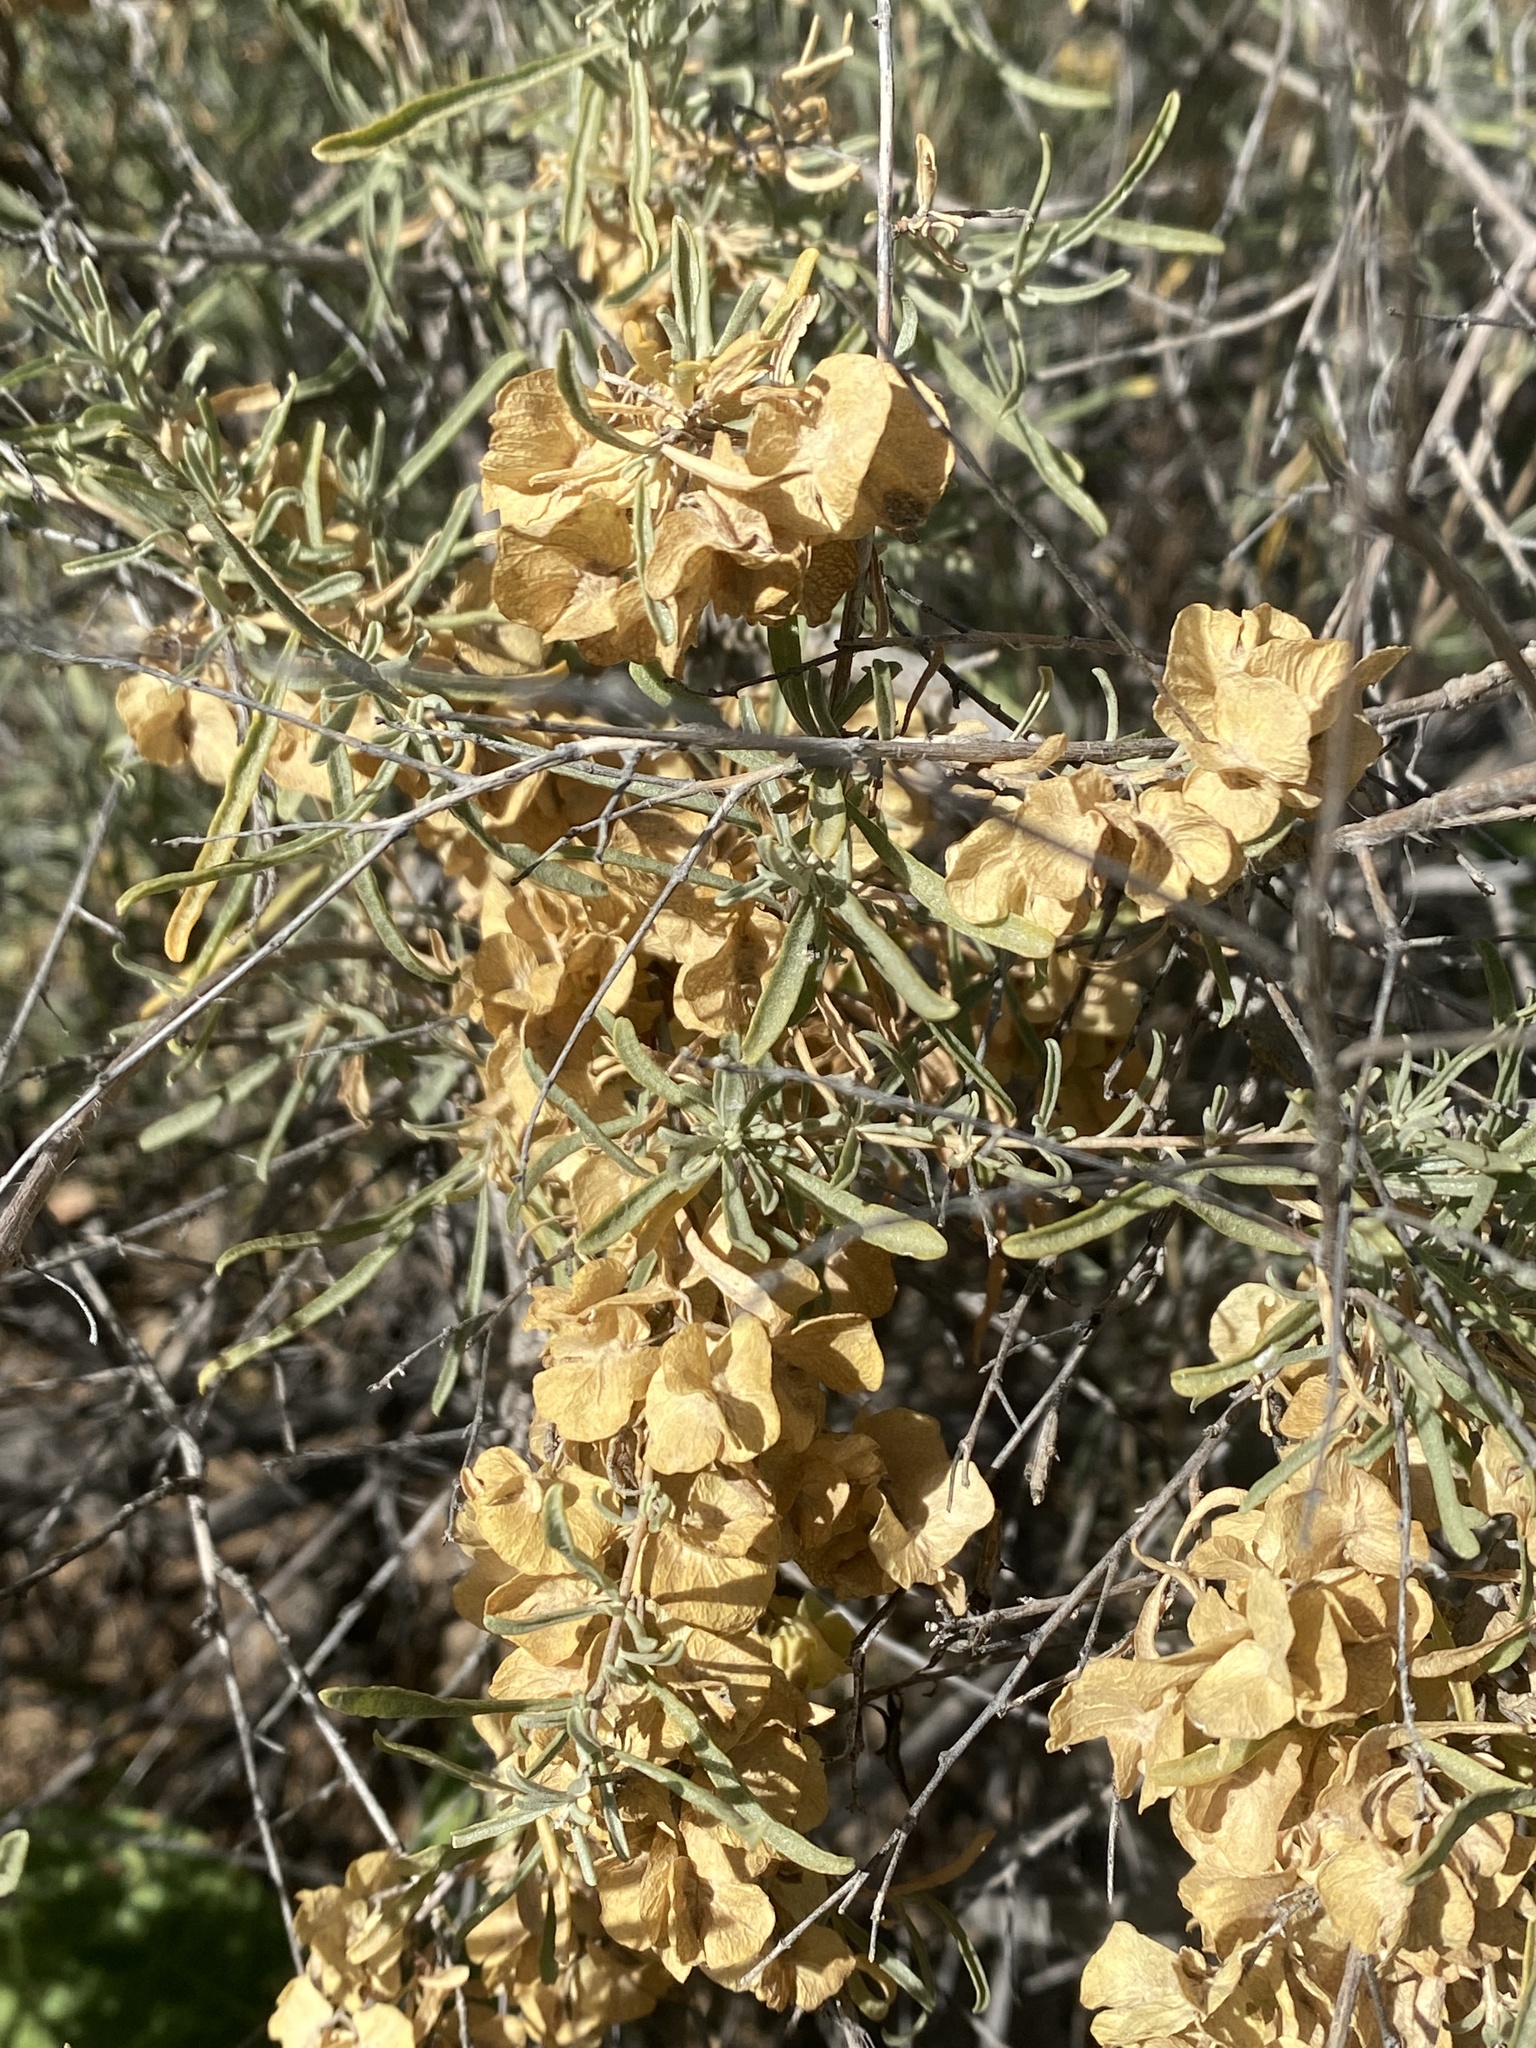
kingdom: Plantae
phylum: Tracheophyta
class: Magnoliopsida
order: Caryophyllales
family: Amaranthaceae
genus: Atriplex
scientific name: Atriplex canescens
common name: Four-wing saltbush
